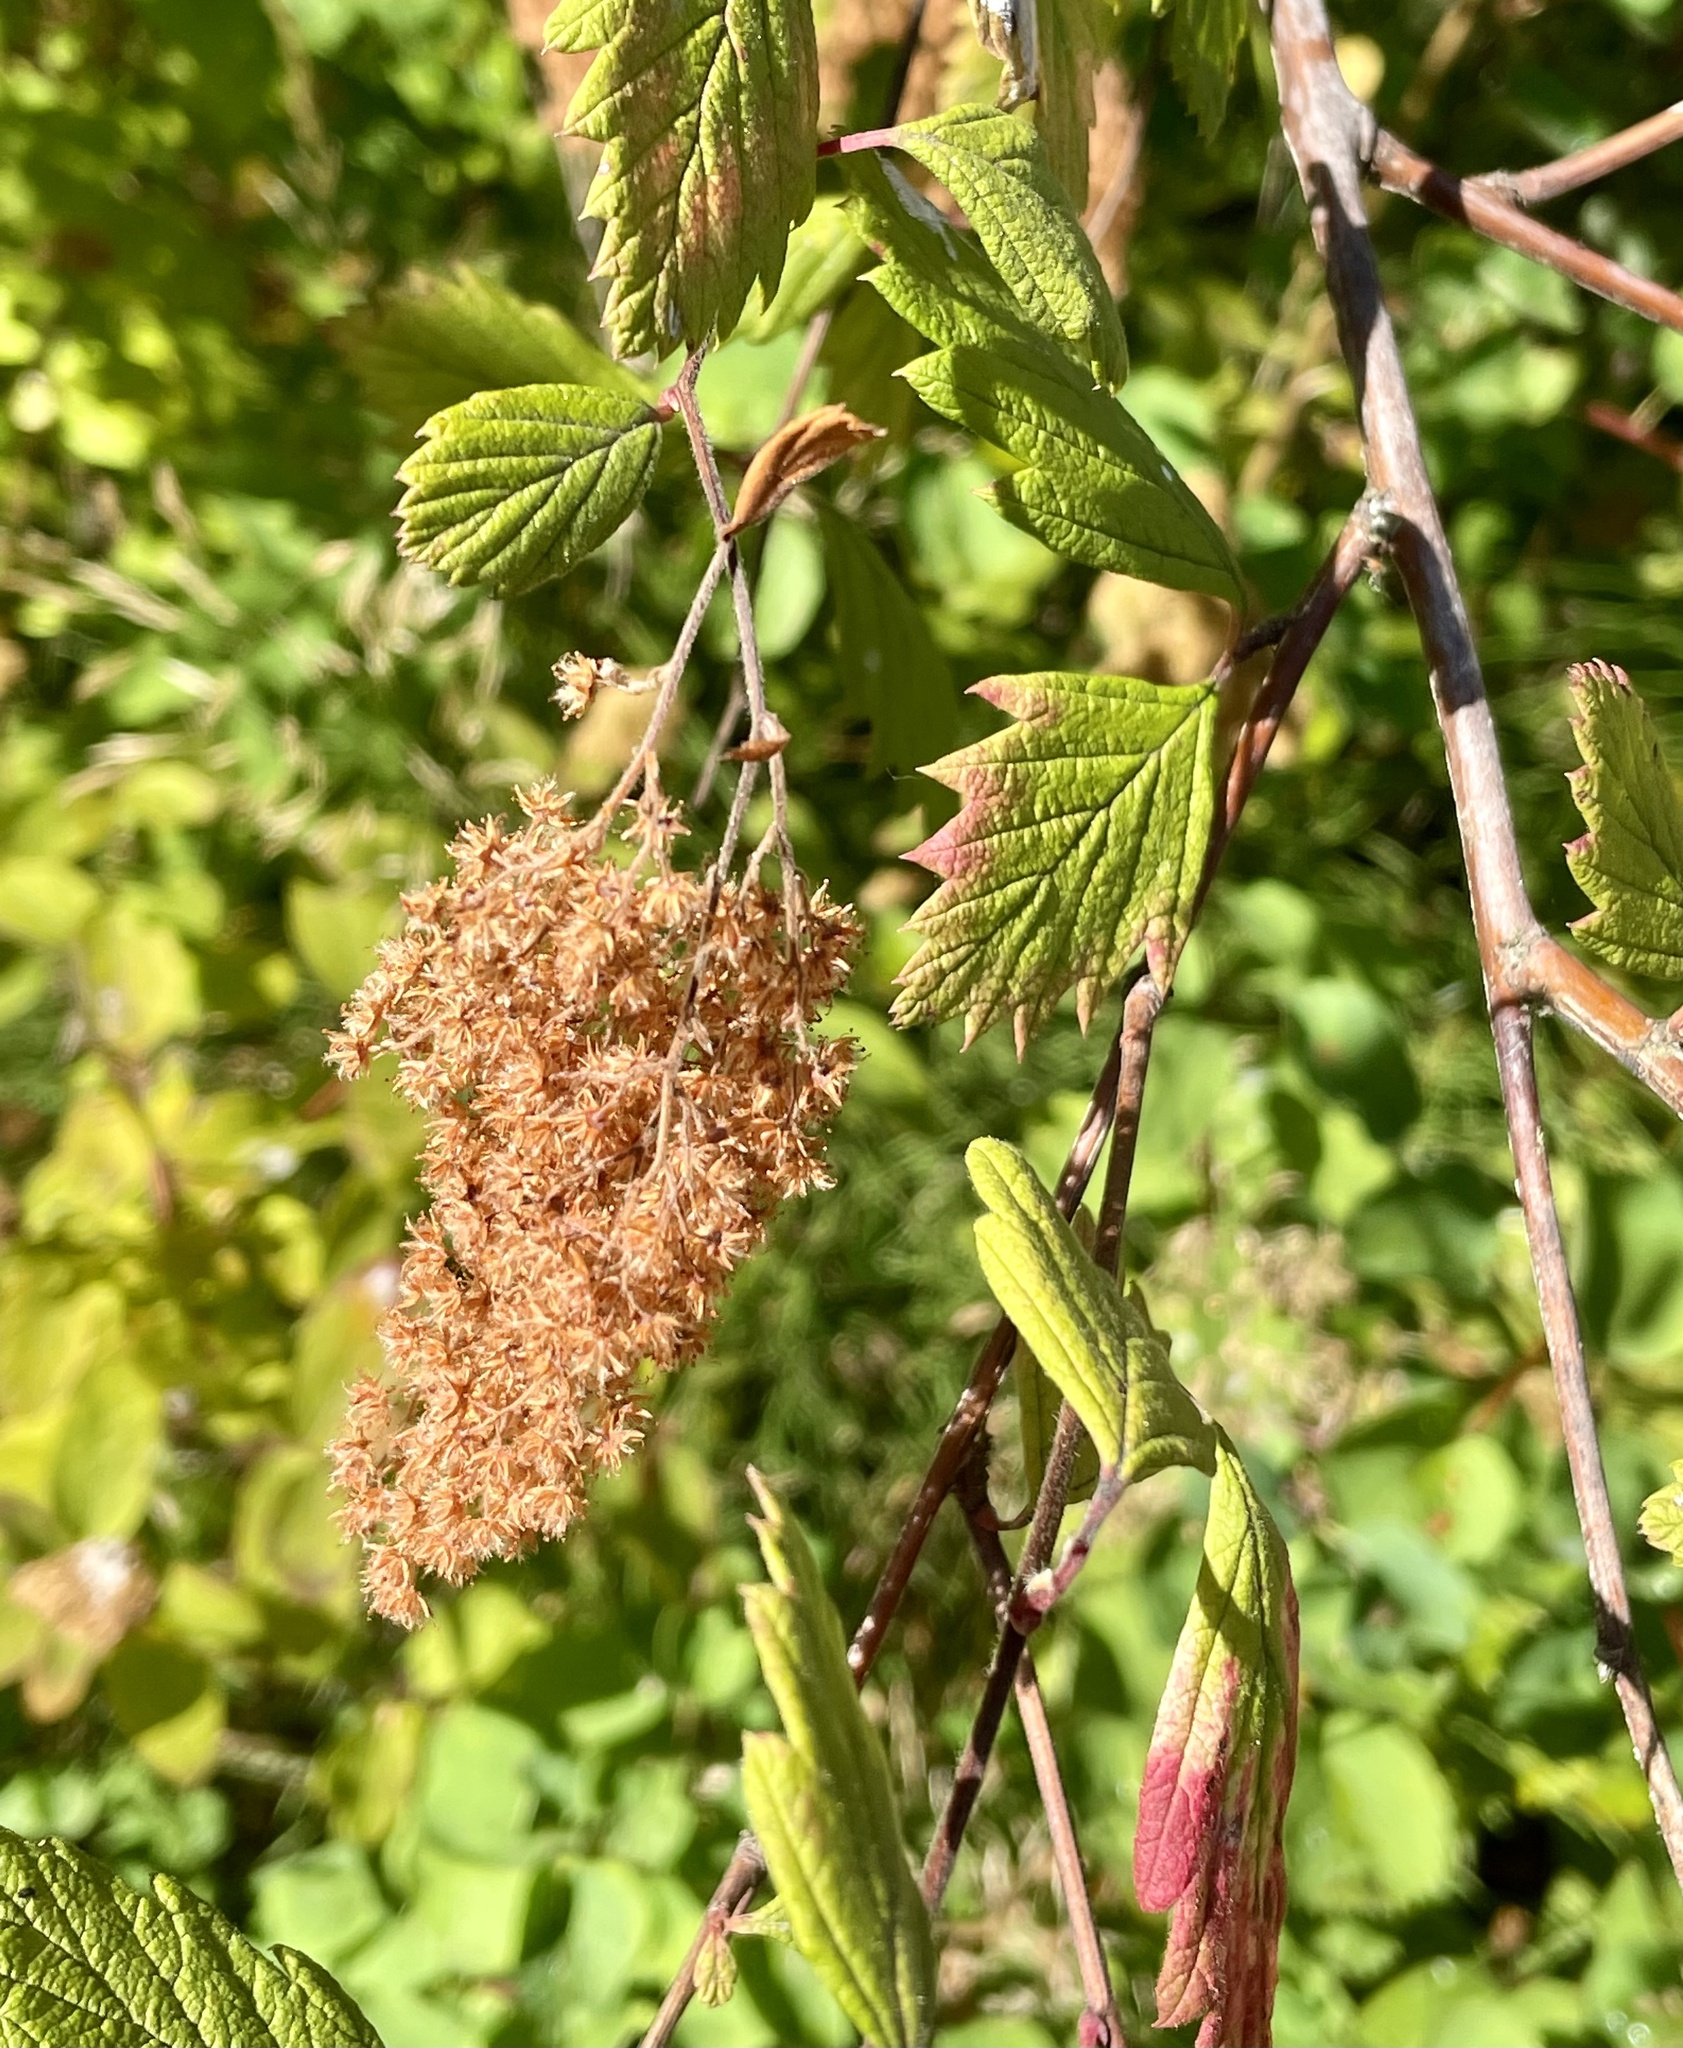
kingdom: Plantae
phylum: Tracheophyta
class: Magnoliopsida
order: Rosales
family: Rosaceae
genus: Holodiscus
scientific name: Holodiscus discolor
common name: Oceanspray
